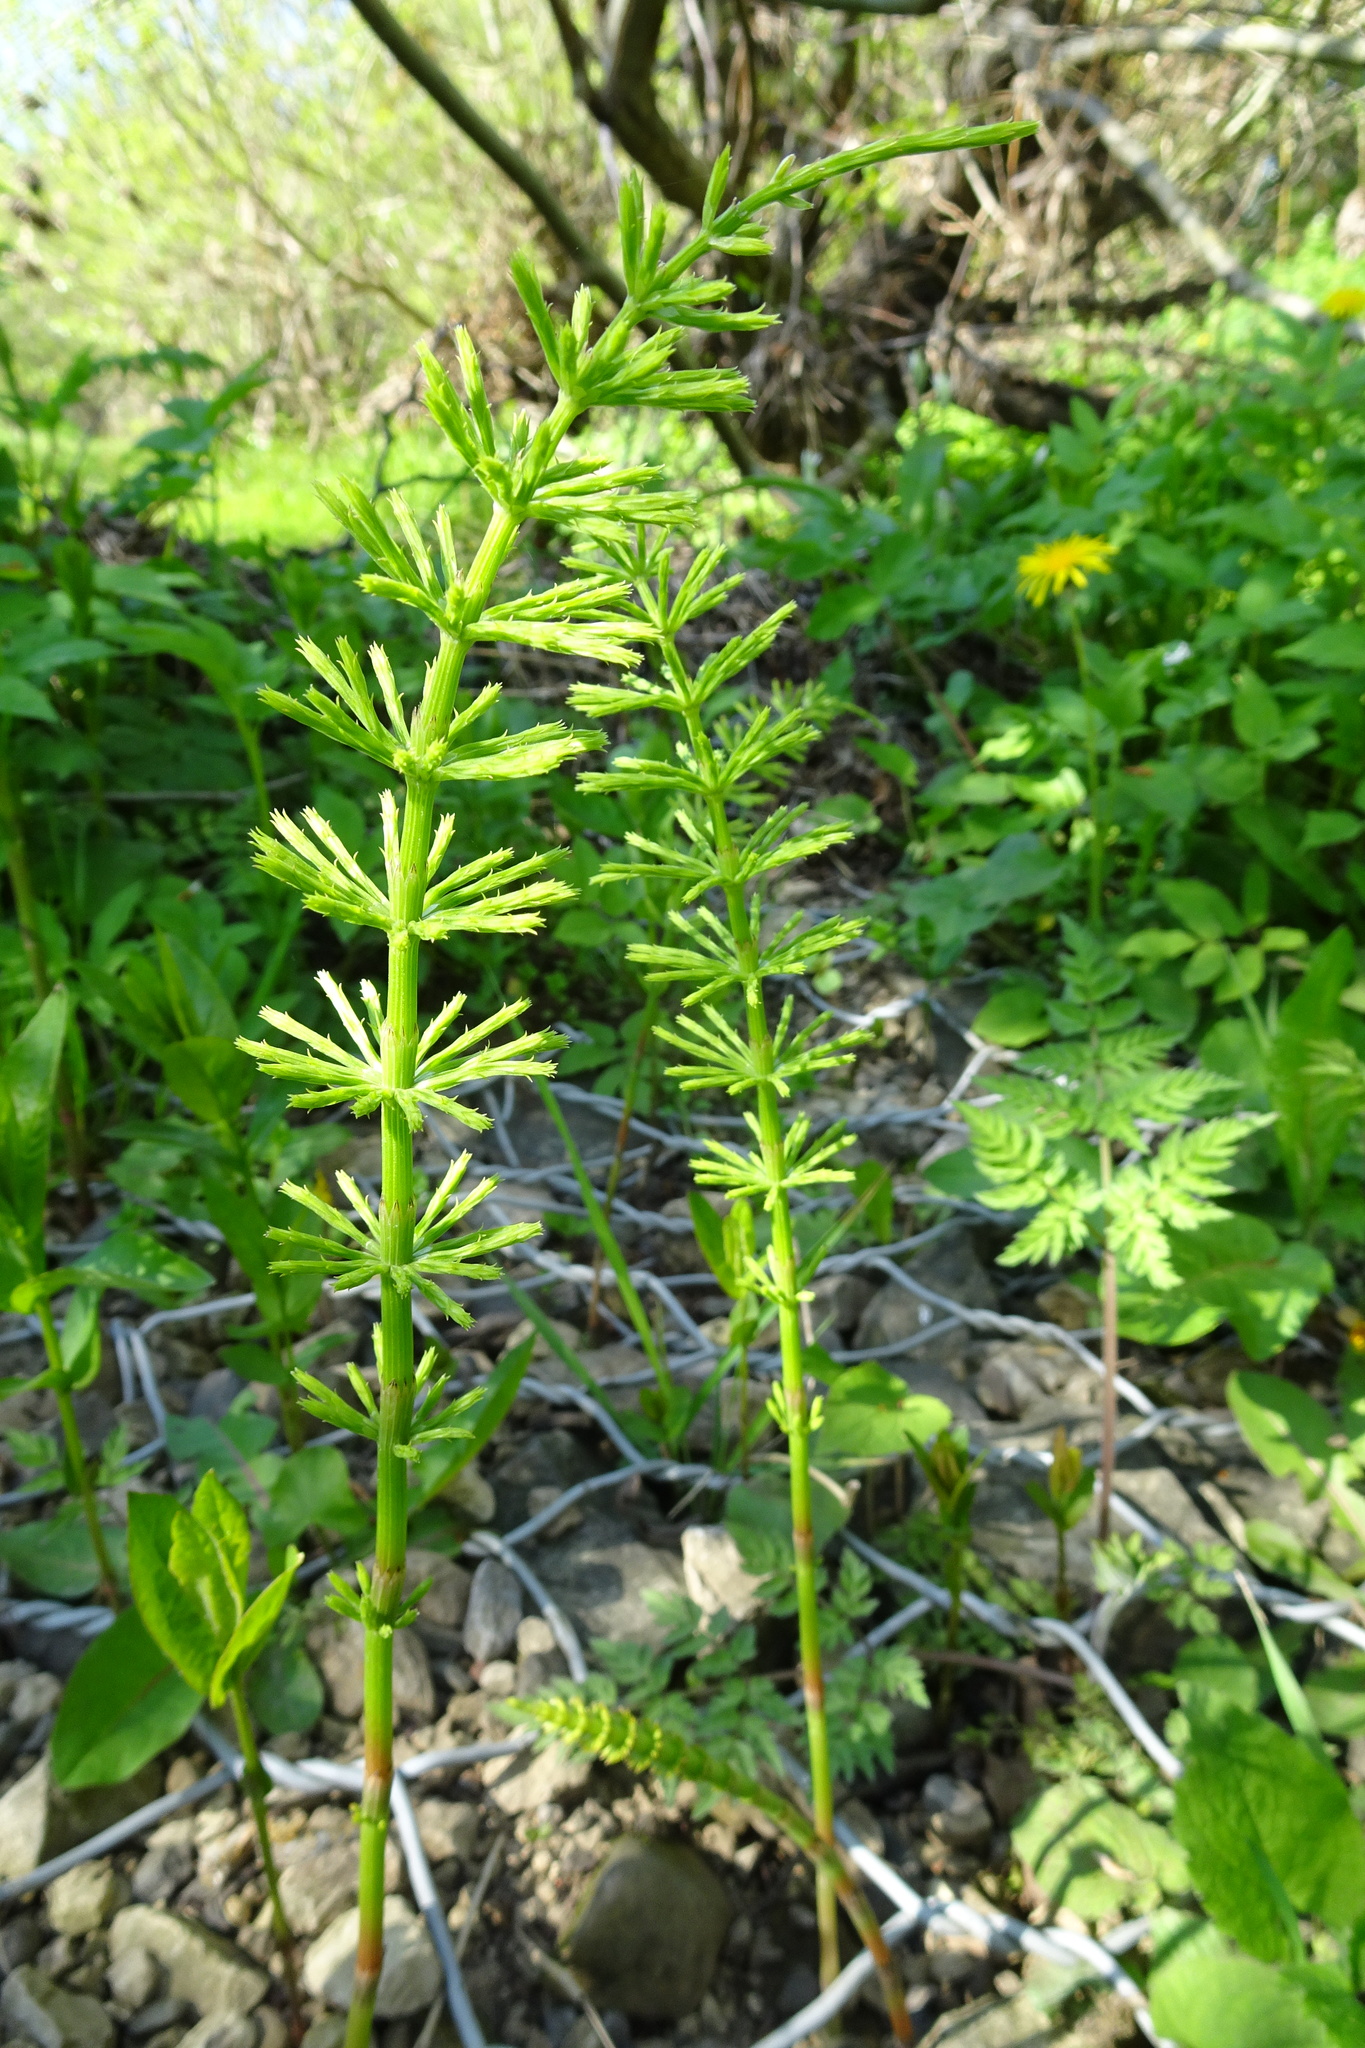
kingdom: Plantae
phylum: Tracheophyta
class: Polypodiopsida
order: Equisetales
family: Equisetaceae
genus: Equisetum
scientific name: Equisetum arvense
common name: Field horsetail
